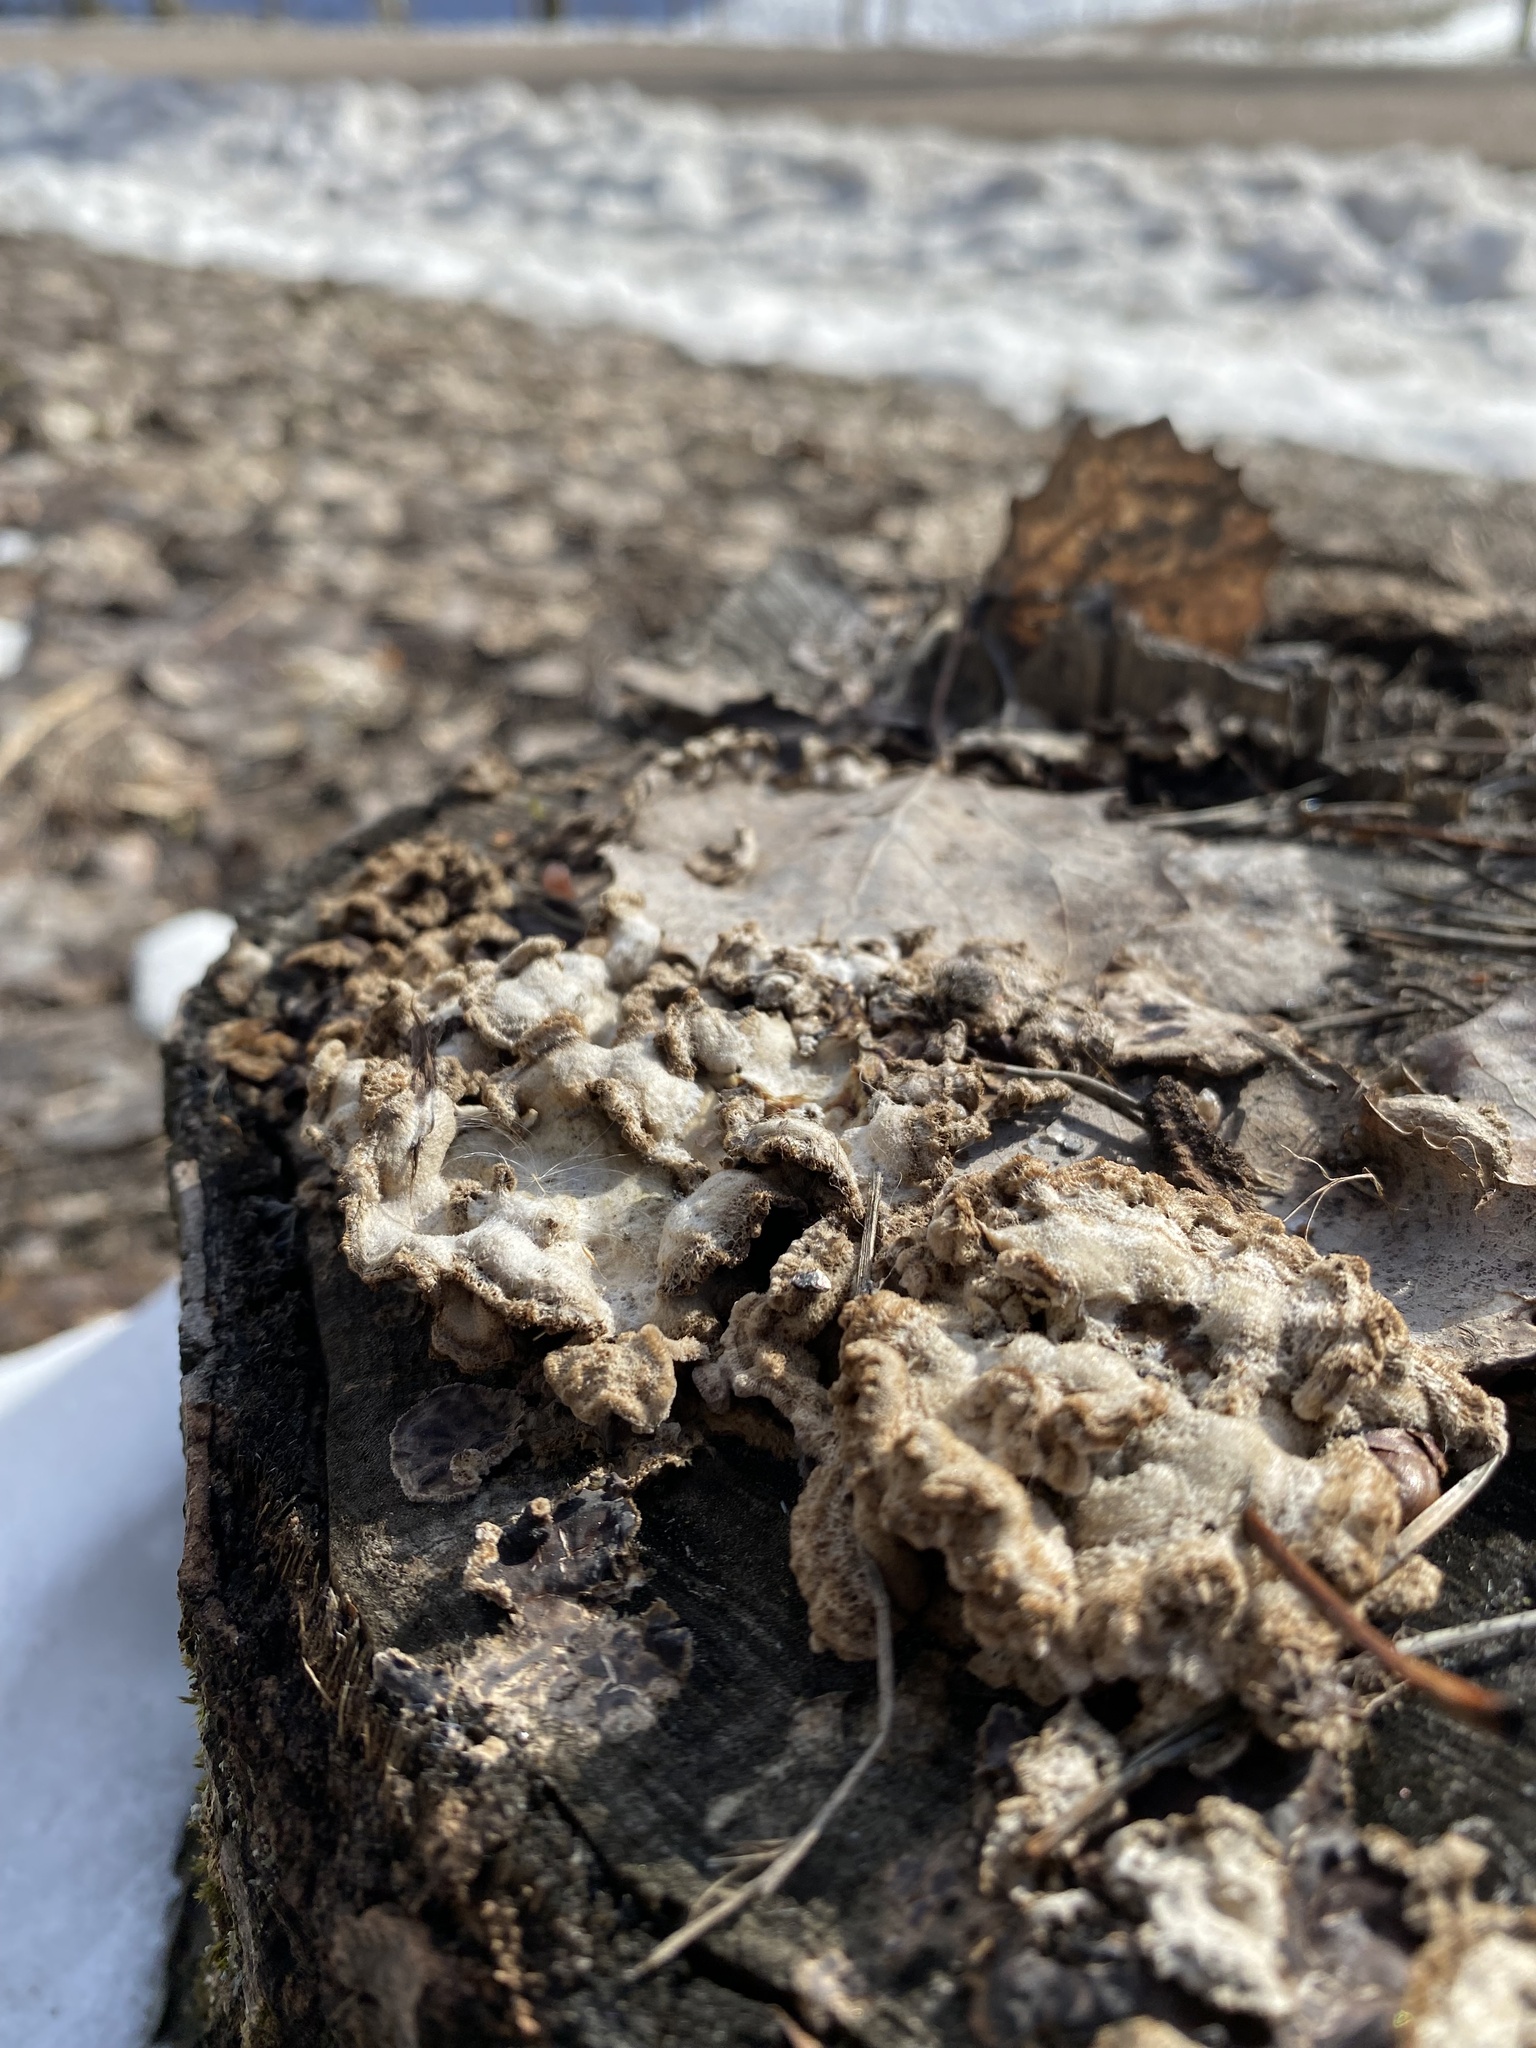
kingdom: Fungi
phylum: Basidiomycota
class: Agaricomycetes
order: Agaricales
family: Cyphellaceae
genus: Chondrostereum
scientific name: Chondrostereum purpureum
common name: Silver leaf disease
